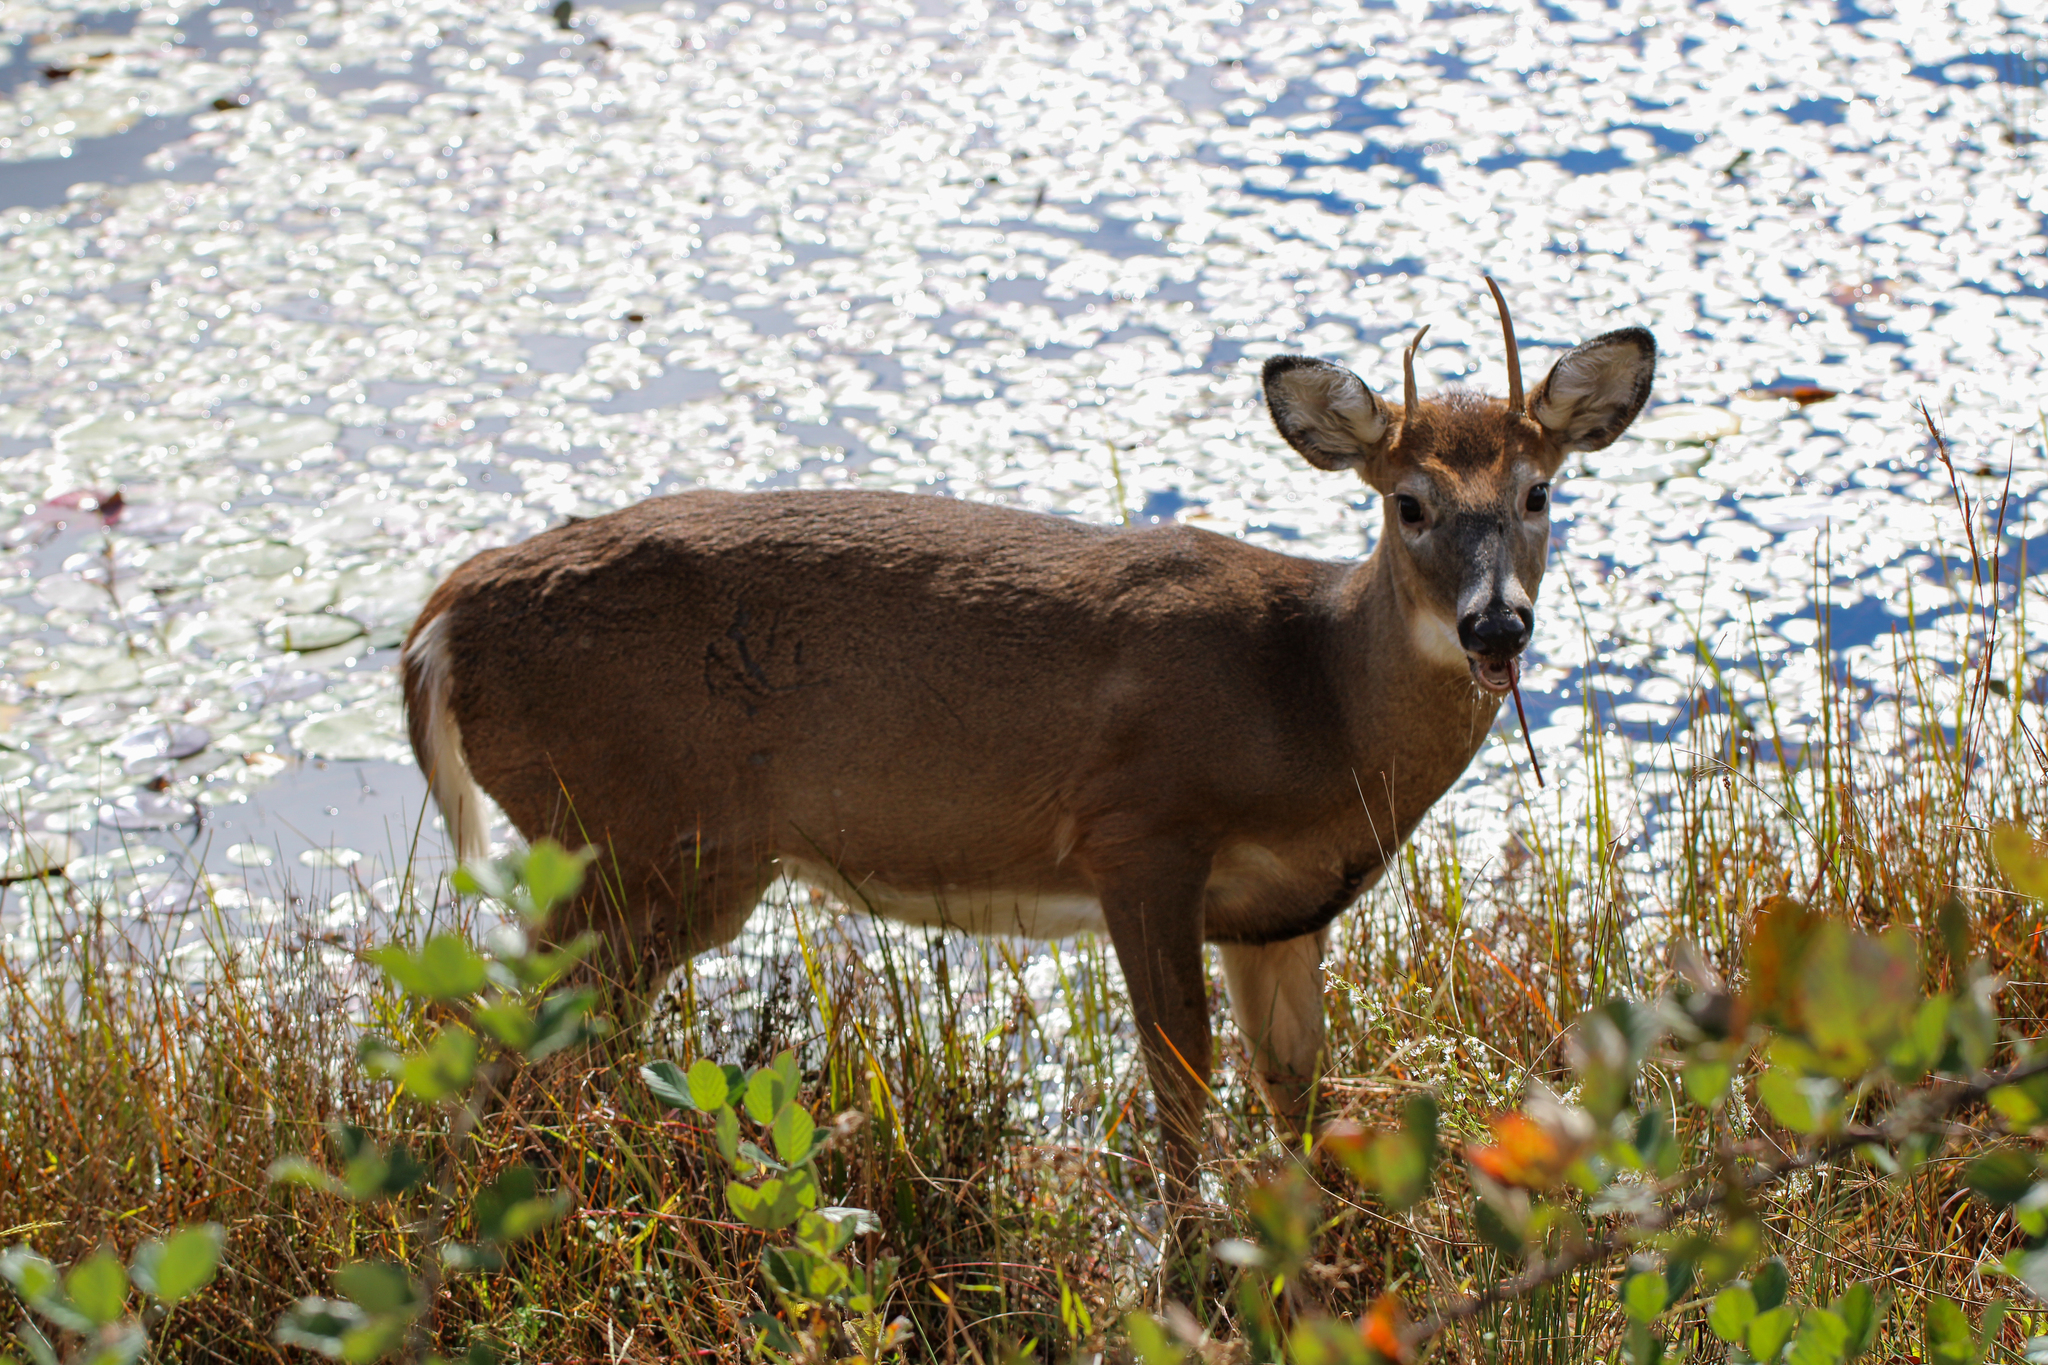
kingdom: Animalia
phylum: Chordata
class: Mammalia
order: Artiodactyla
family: Cervidae
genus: Odocoileus
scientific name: Odocoileus virginianus
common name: White-tailed deer
